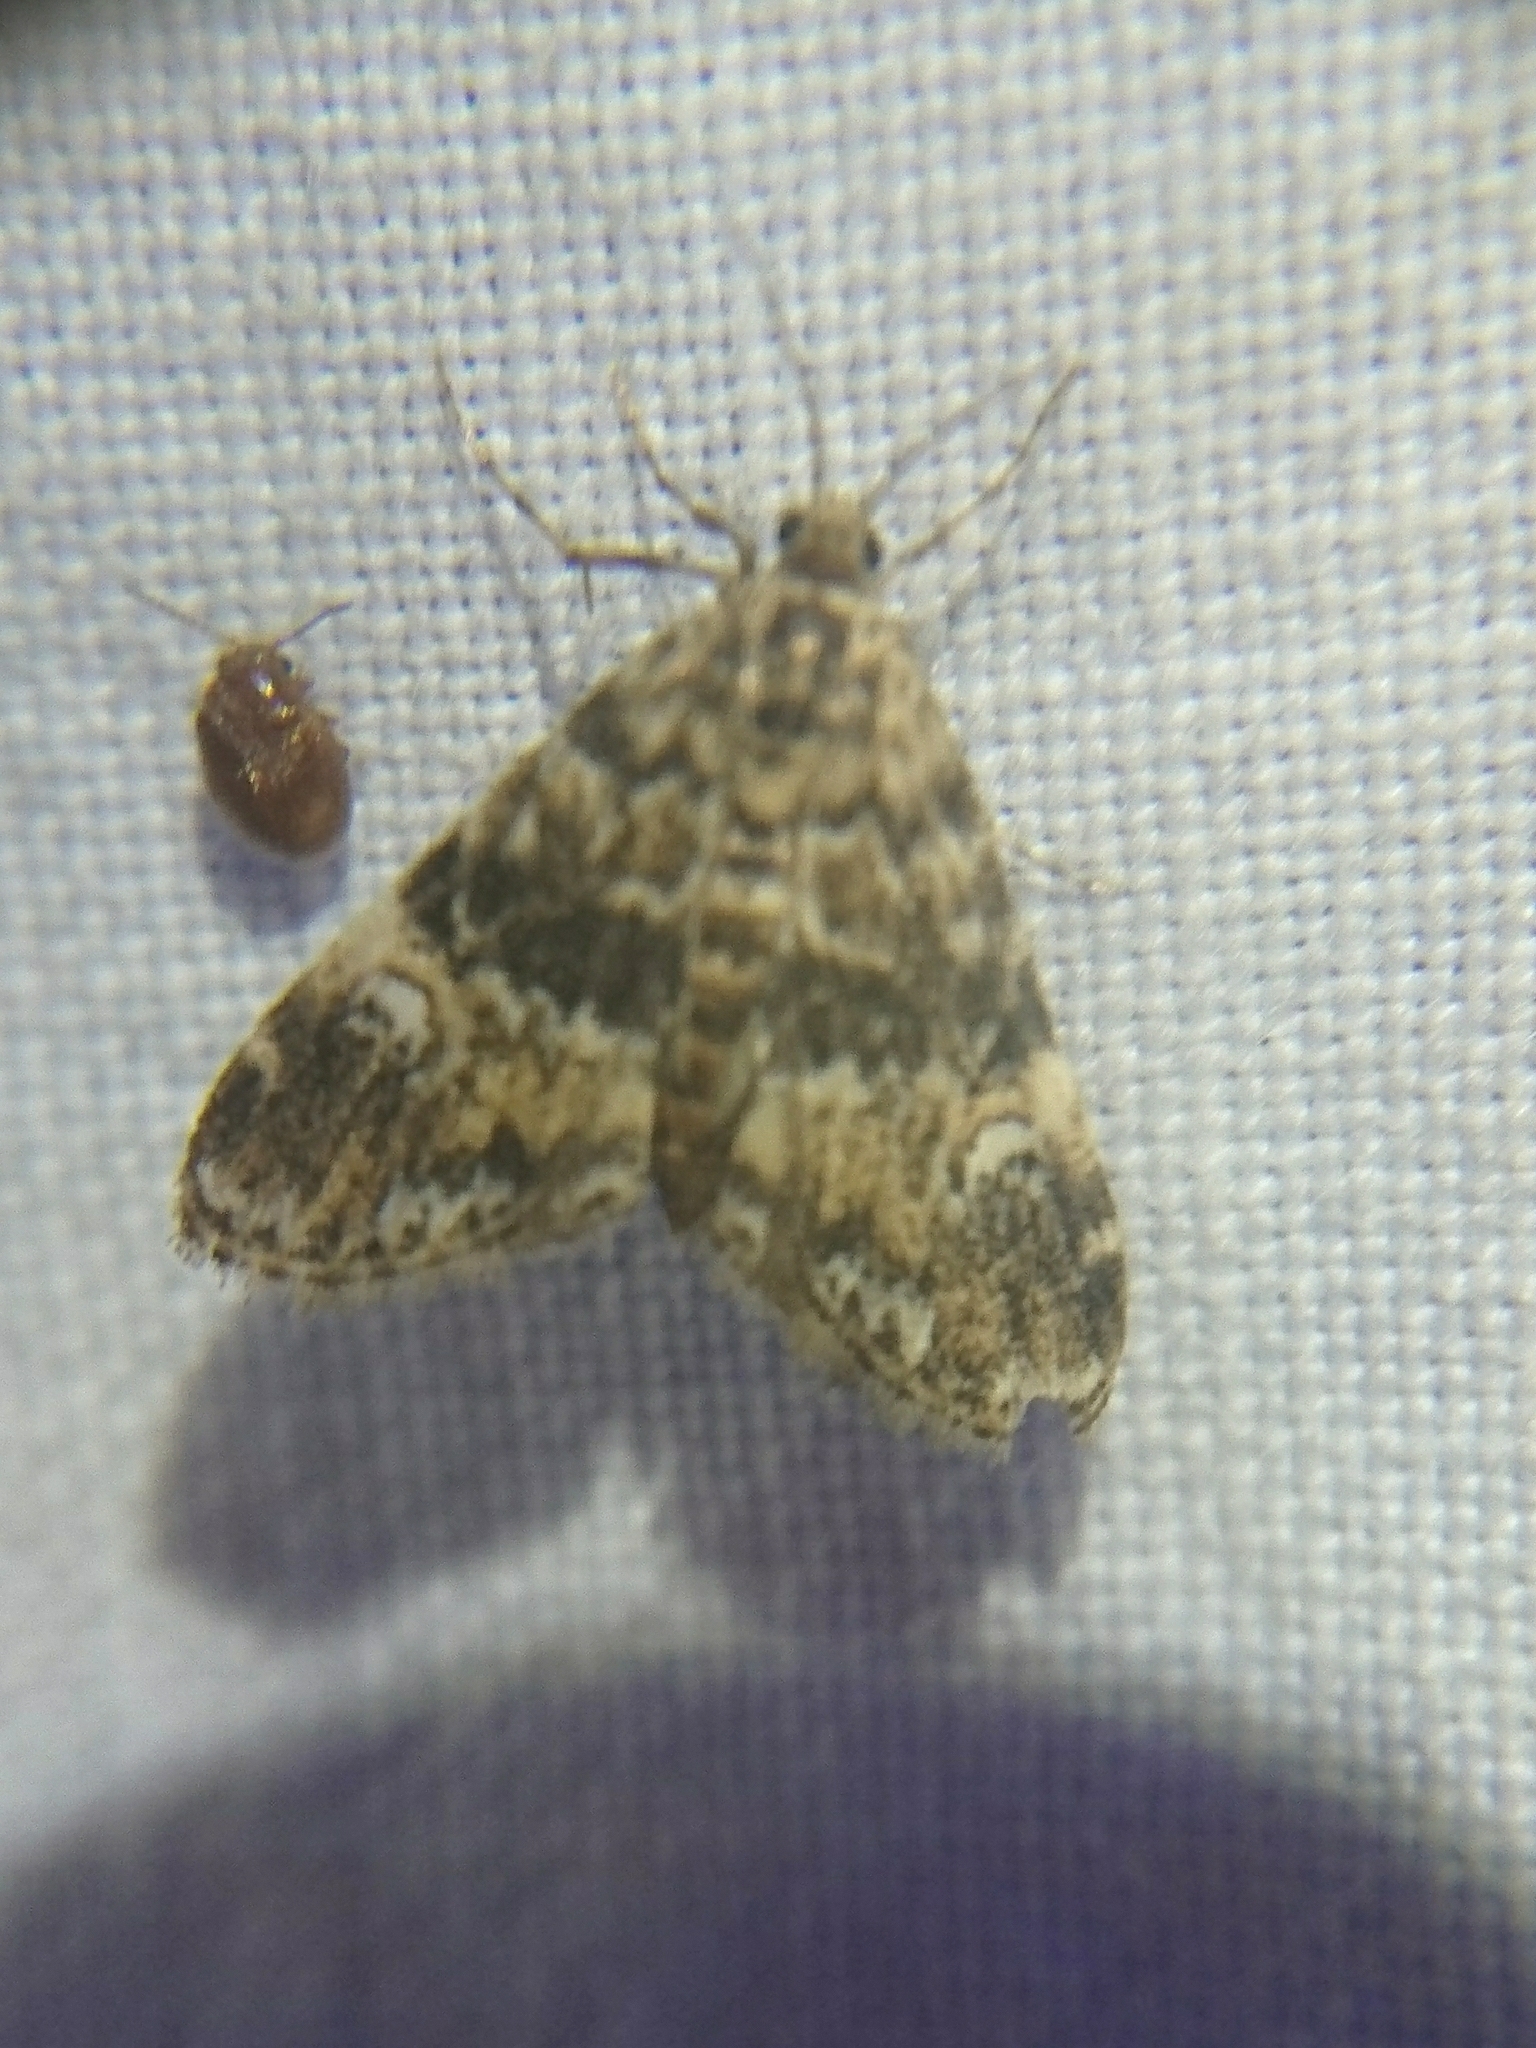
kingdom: Animalia
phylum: Arthropoda
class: Insecta
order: Lepidoptera
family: Crambidae
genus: Elophila
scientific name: Elophila obliteralis
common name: Waterlily leafcutter moth
